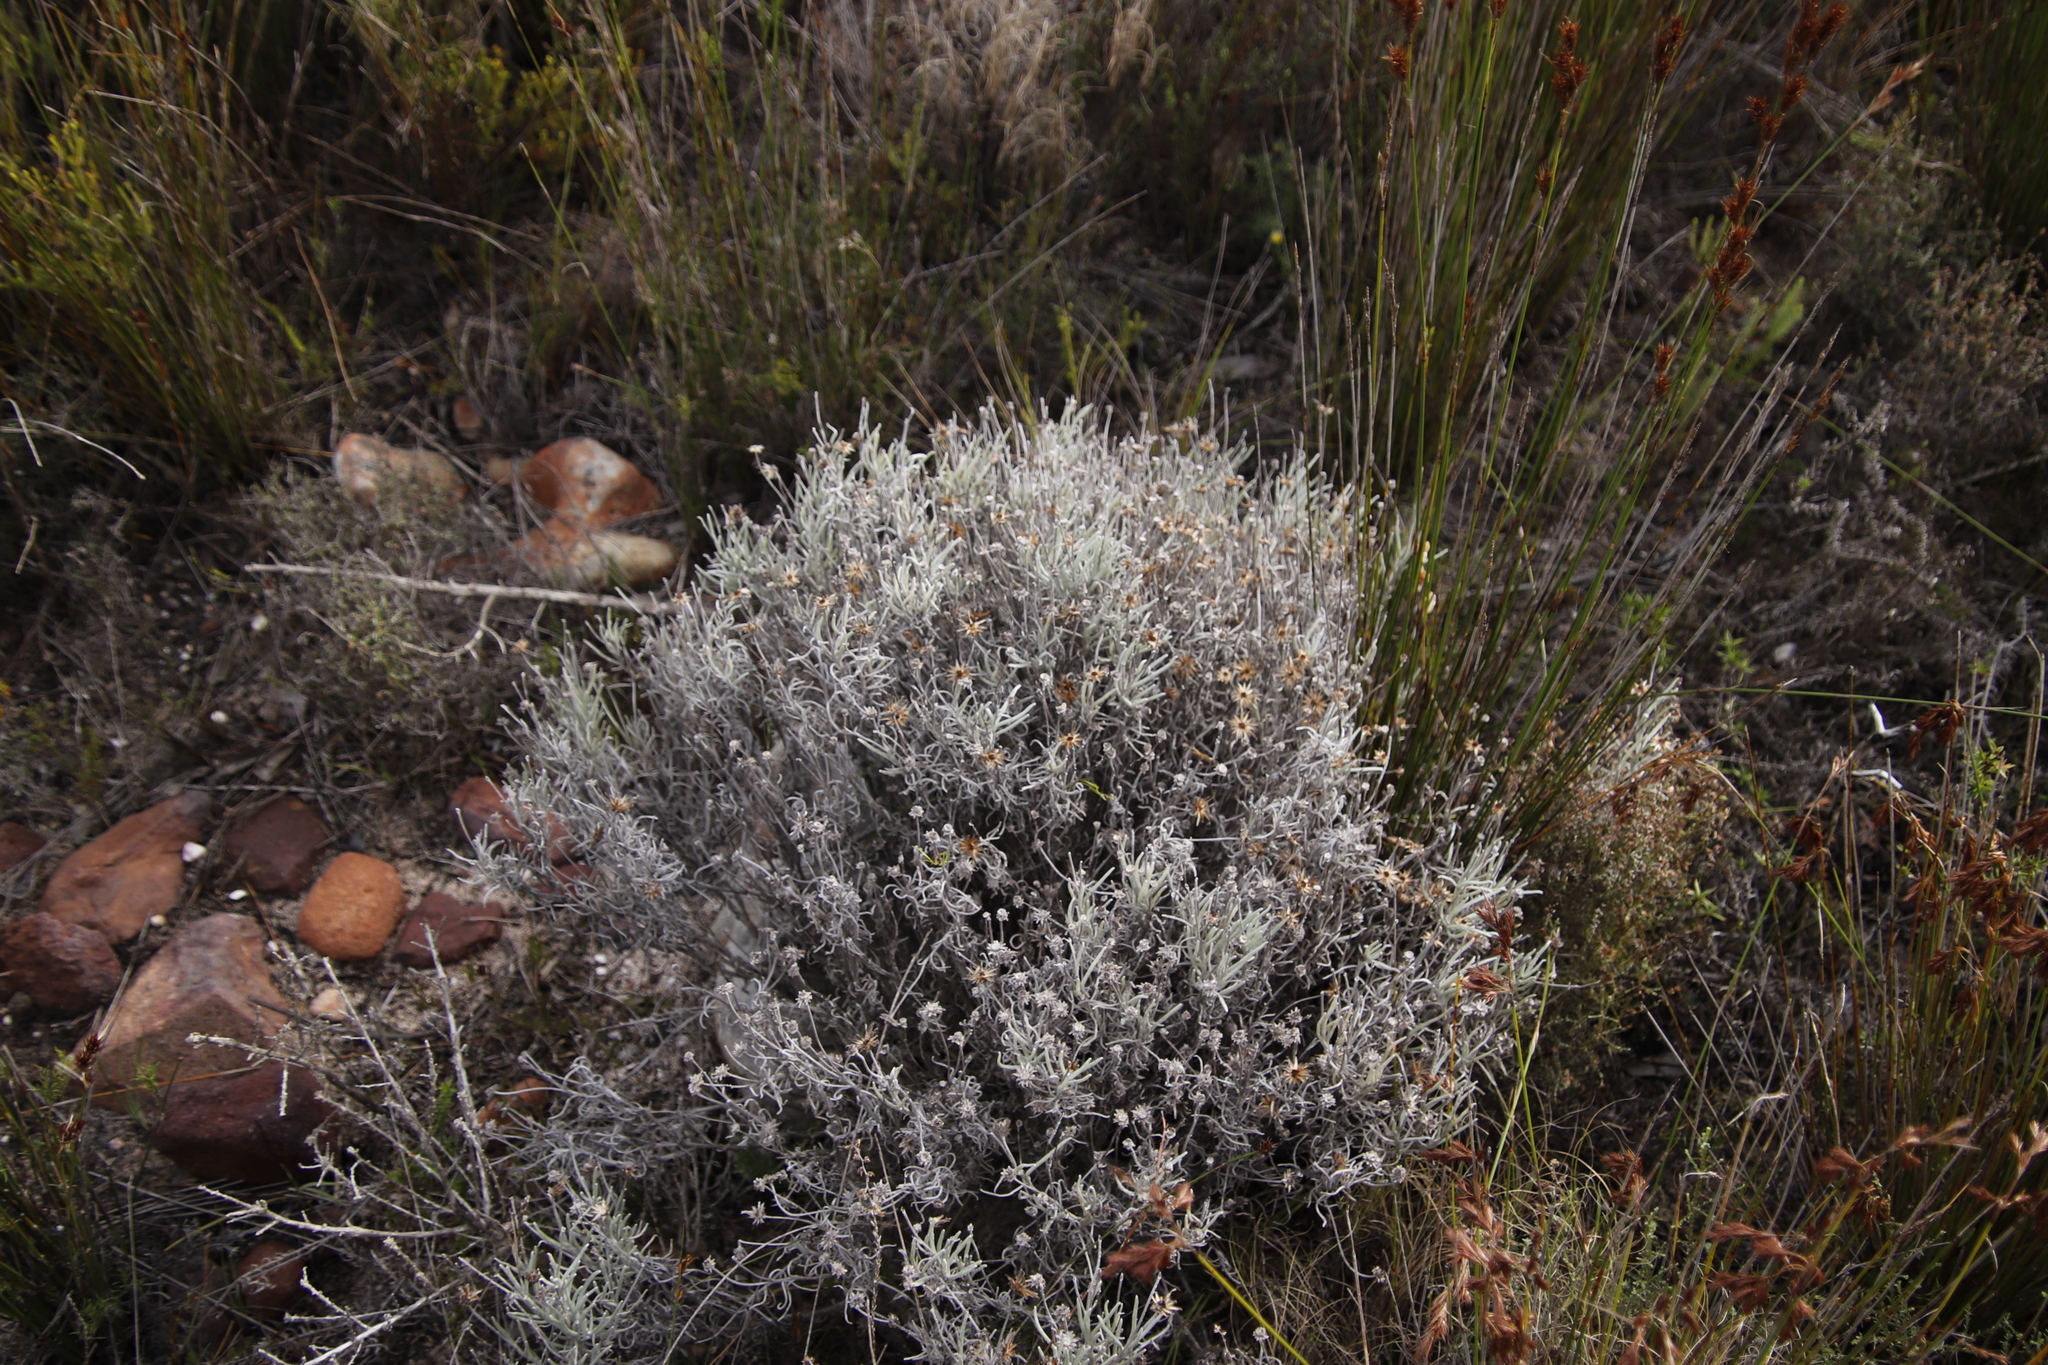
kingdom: Plantae
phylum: Tracheophyta
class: Magnoliopsida
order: Asterales
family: Asteraceae
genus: Syncarpha
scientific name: Syncarpha gnaphaloides
